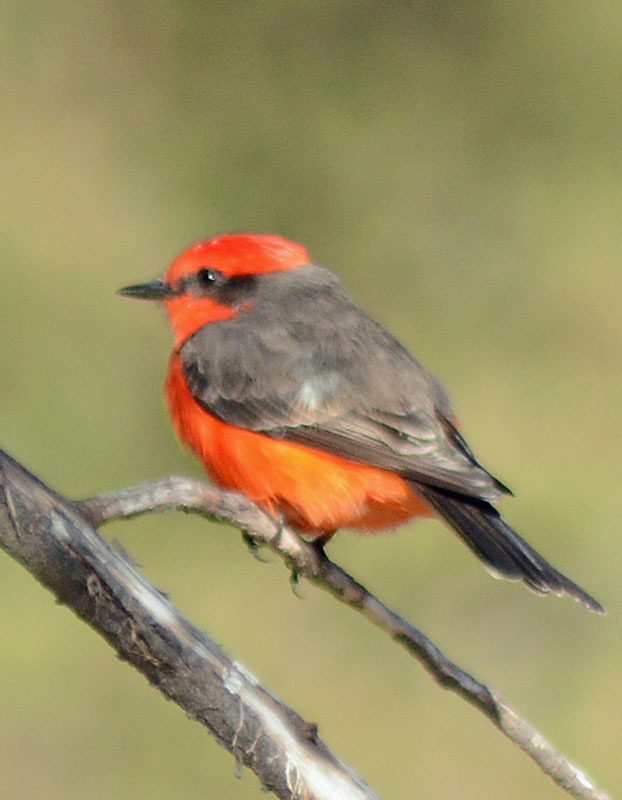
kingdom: Animalia
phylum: Chordata
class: Aves
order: Passeriformes
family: Tyrannidae
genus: Pyrocephalus
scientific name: Pyrocephalus rubinus
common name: Vermilion flycatcher
